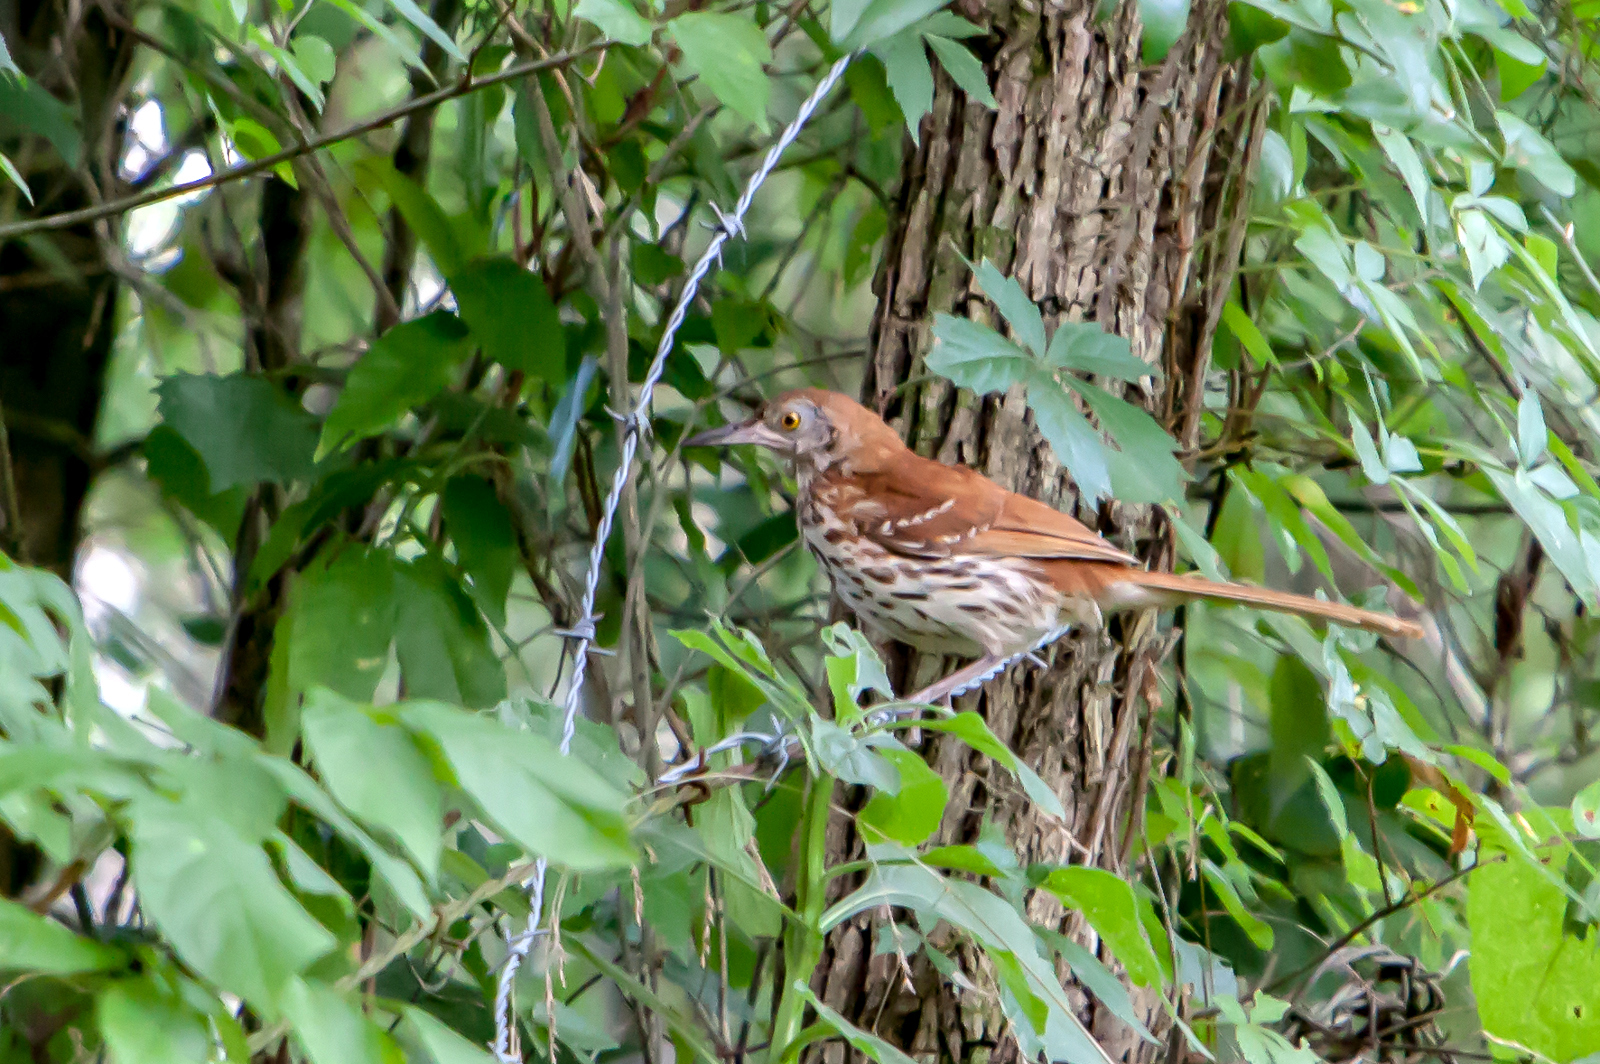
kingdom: Animalia
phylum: Chordata
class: Aves
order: Passeriformes
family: Mimidae
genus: Toxostoma
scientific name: Toxostoma rufum
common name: Brown thrasher
